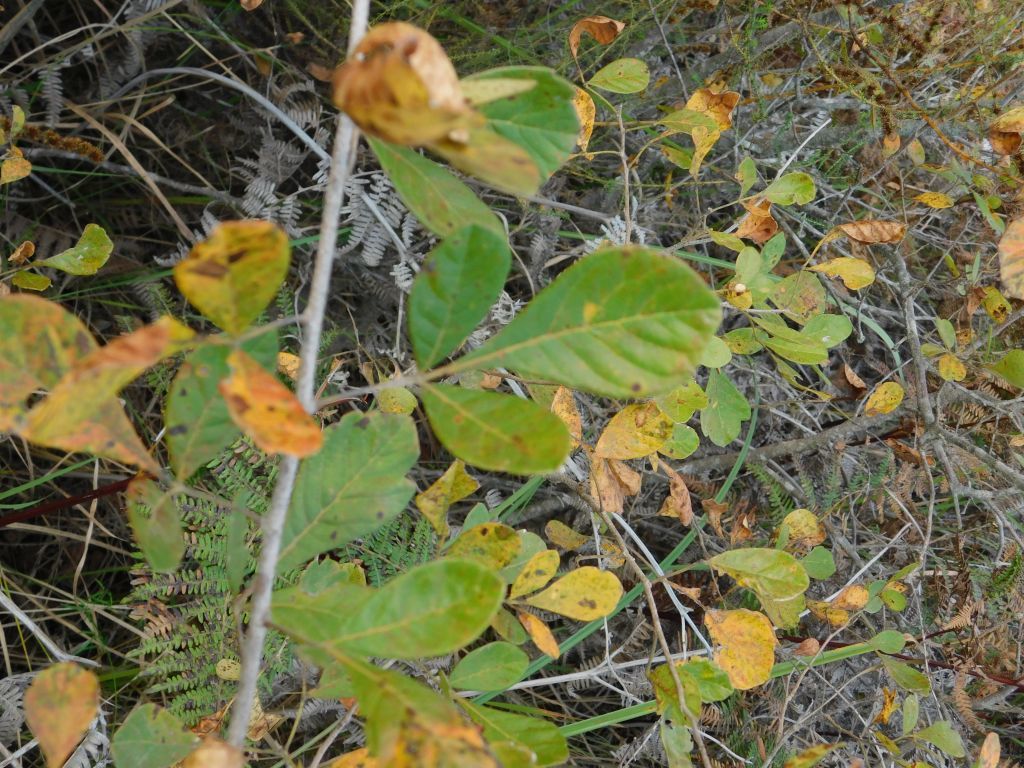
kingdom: Plantae
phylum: Tracheophyta
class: Magnoliopsida
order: Sapindales
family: Anacardiaceae
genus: Searsia
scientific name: Searsia rehmanniana
